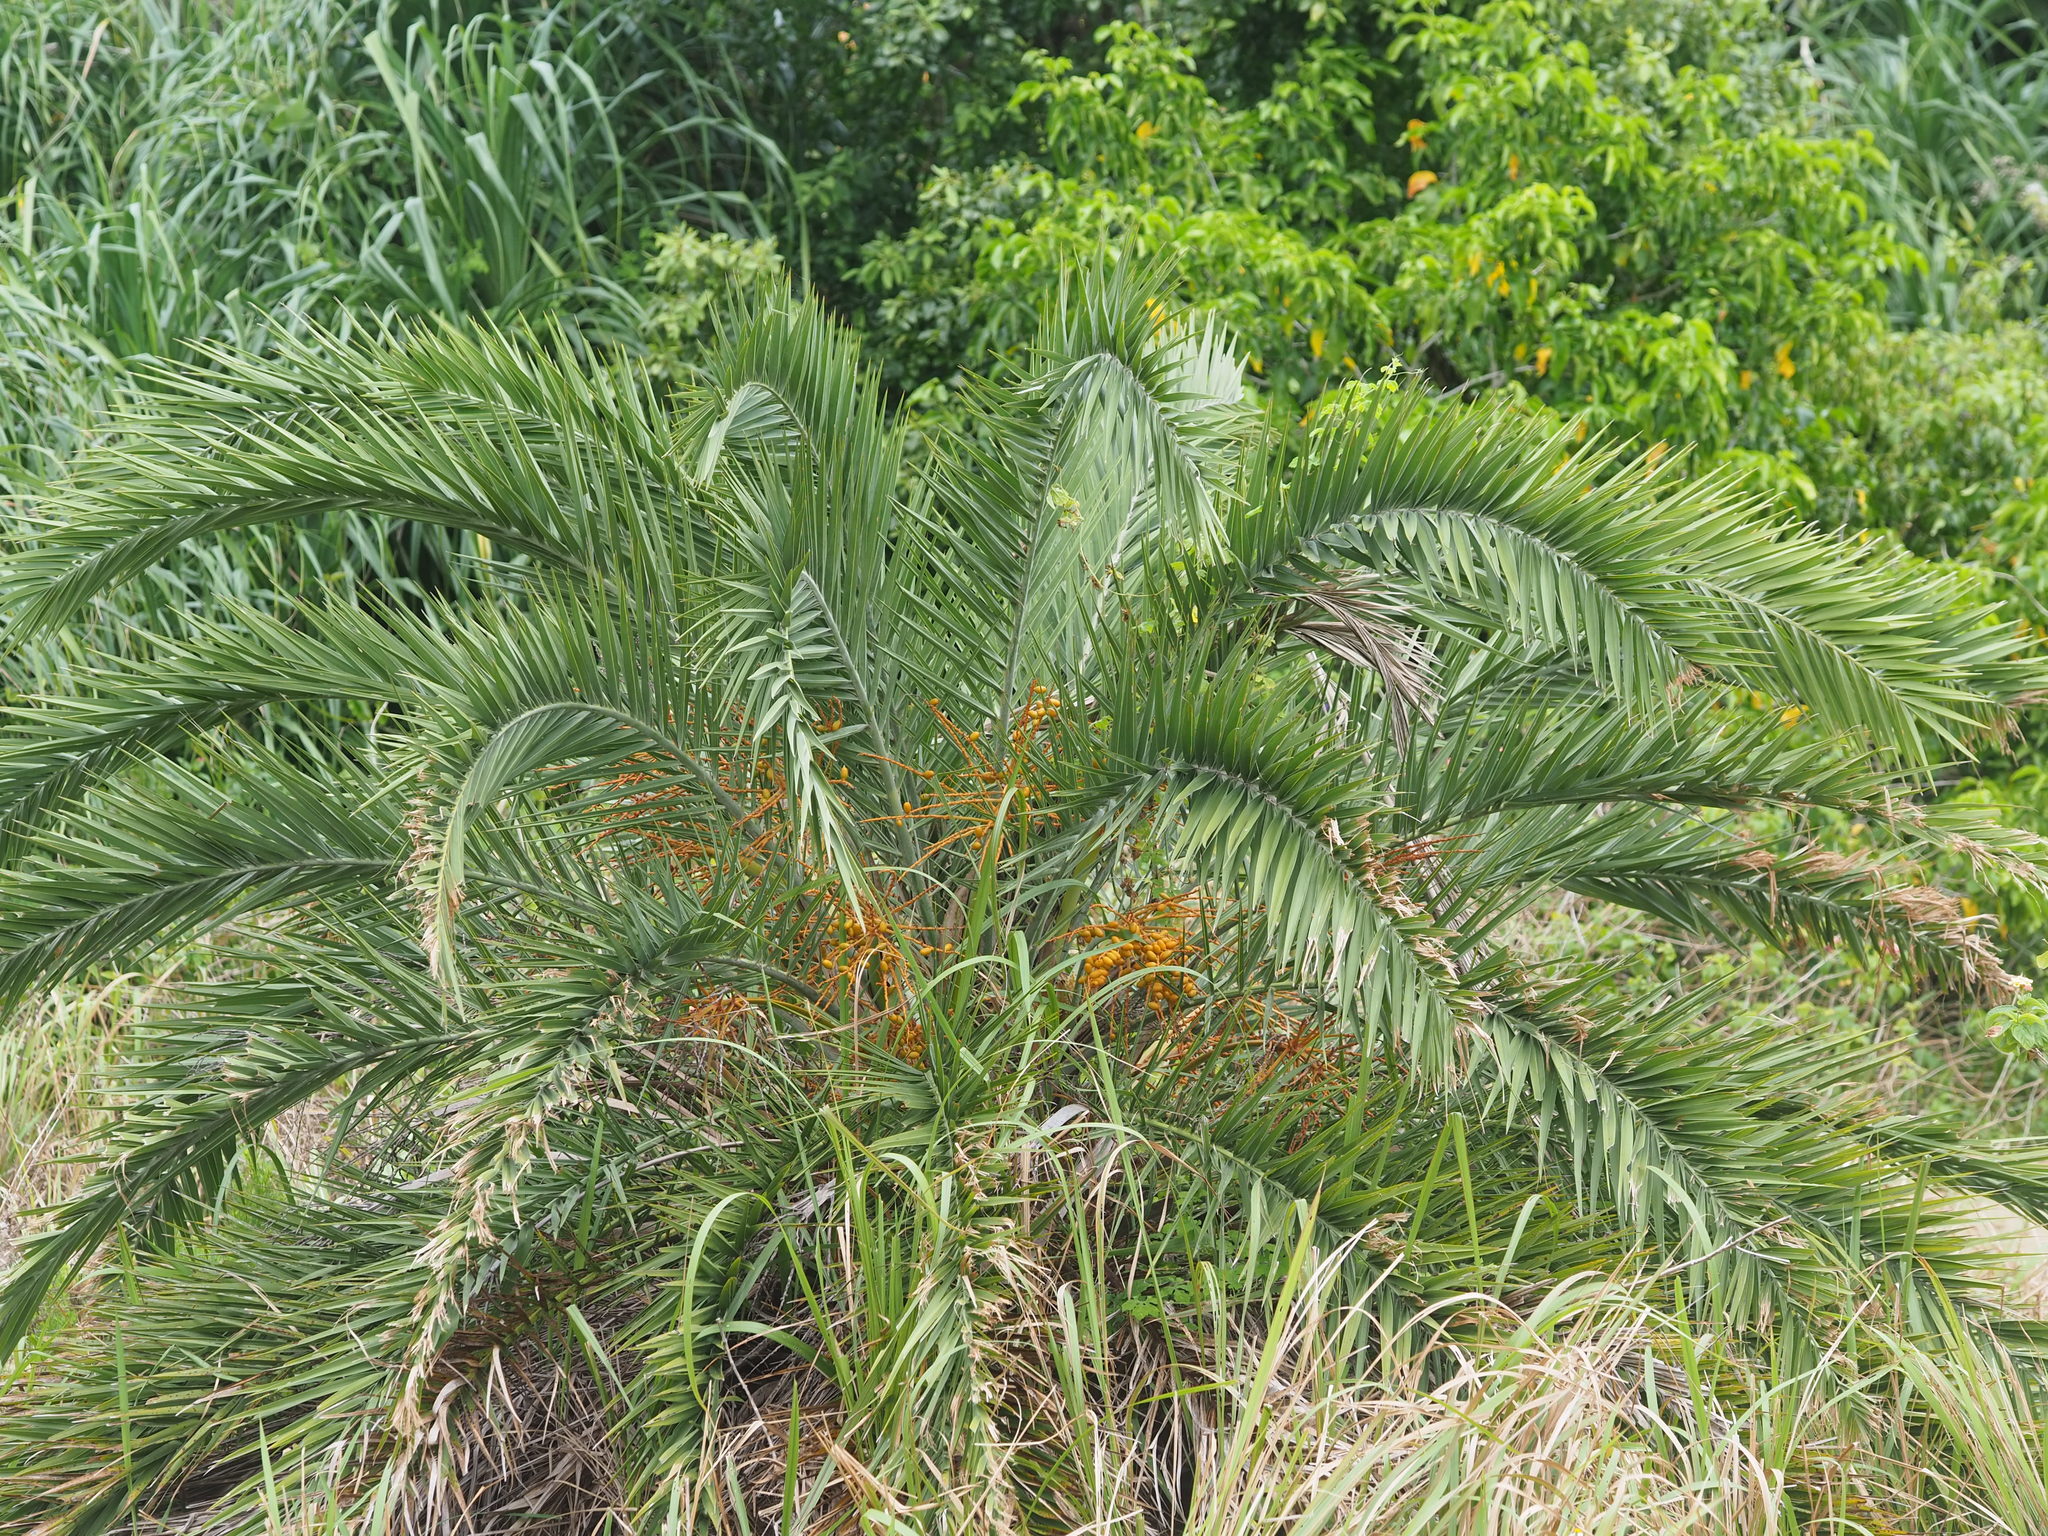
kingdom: Plantae
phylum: Tracheophyta
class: Liliopsida
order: Arecales
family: Arecaceae
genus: Phoenix
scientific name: Phoenix loureiroi
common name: Loureiro's palm
